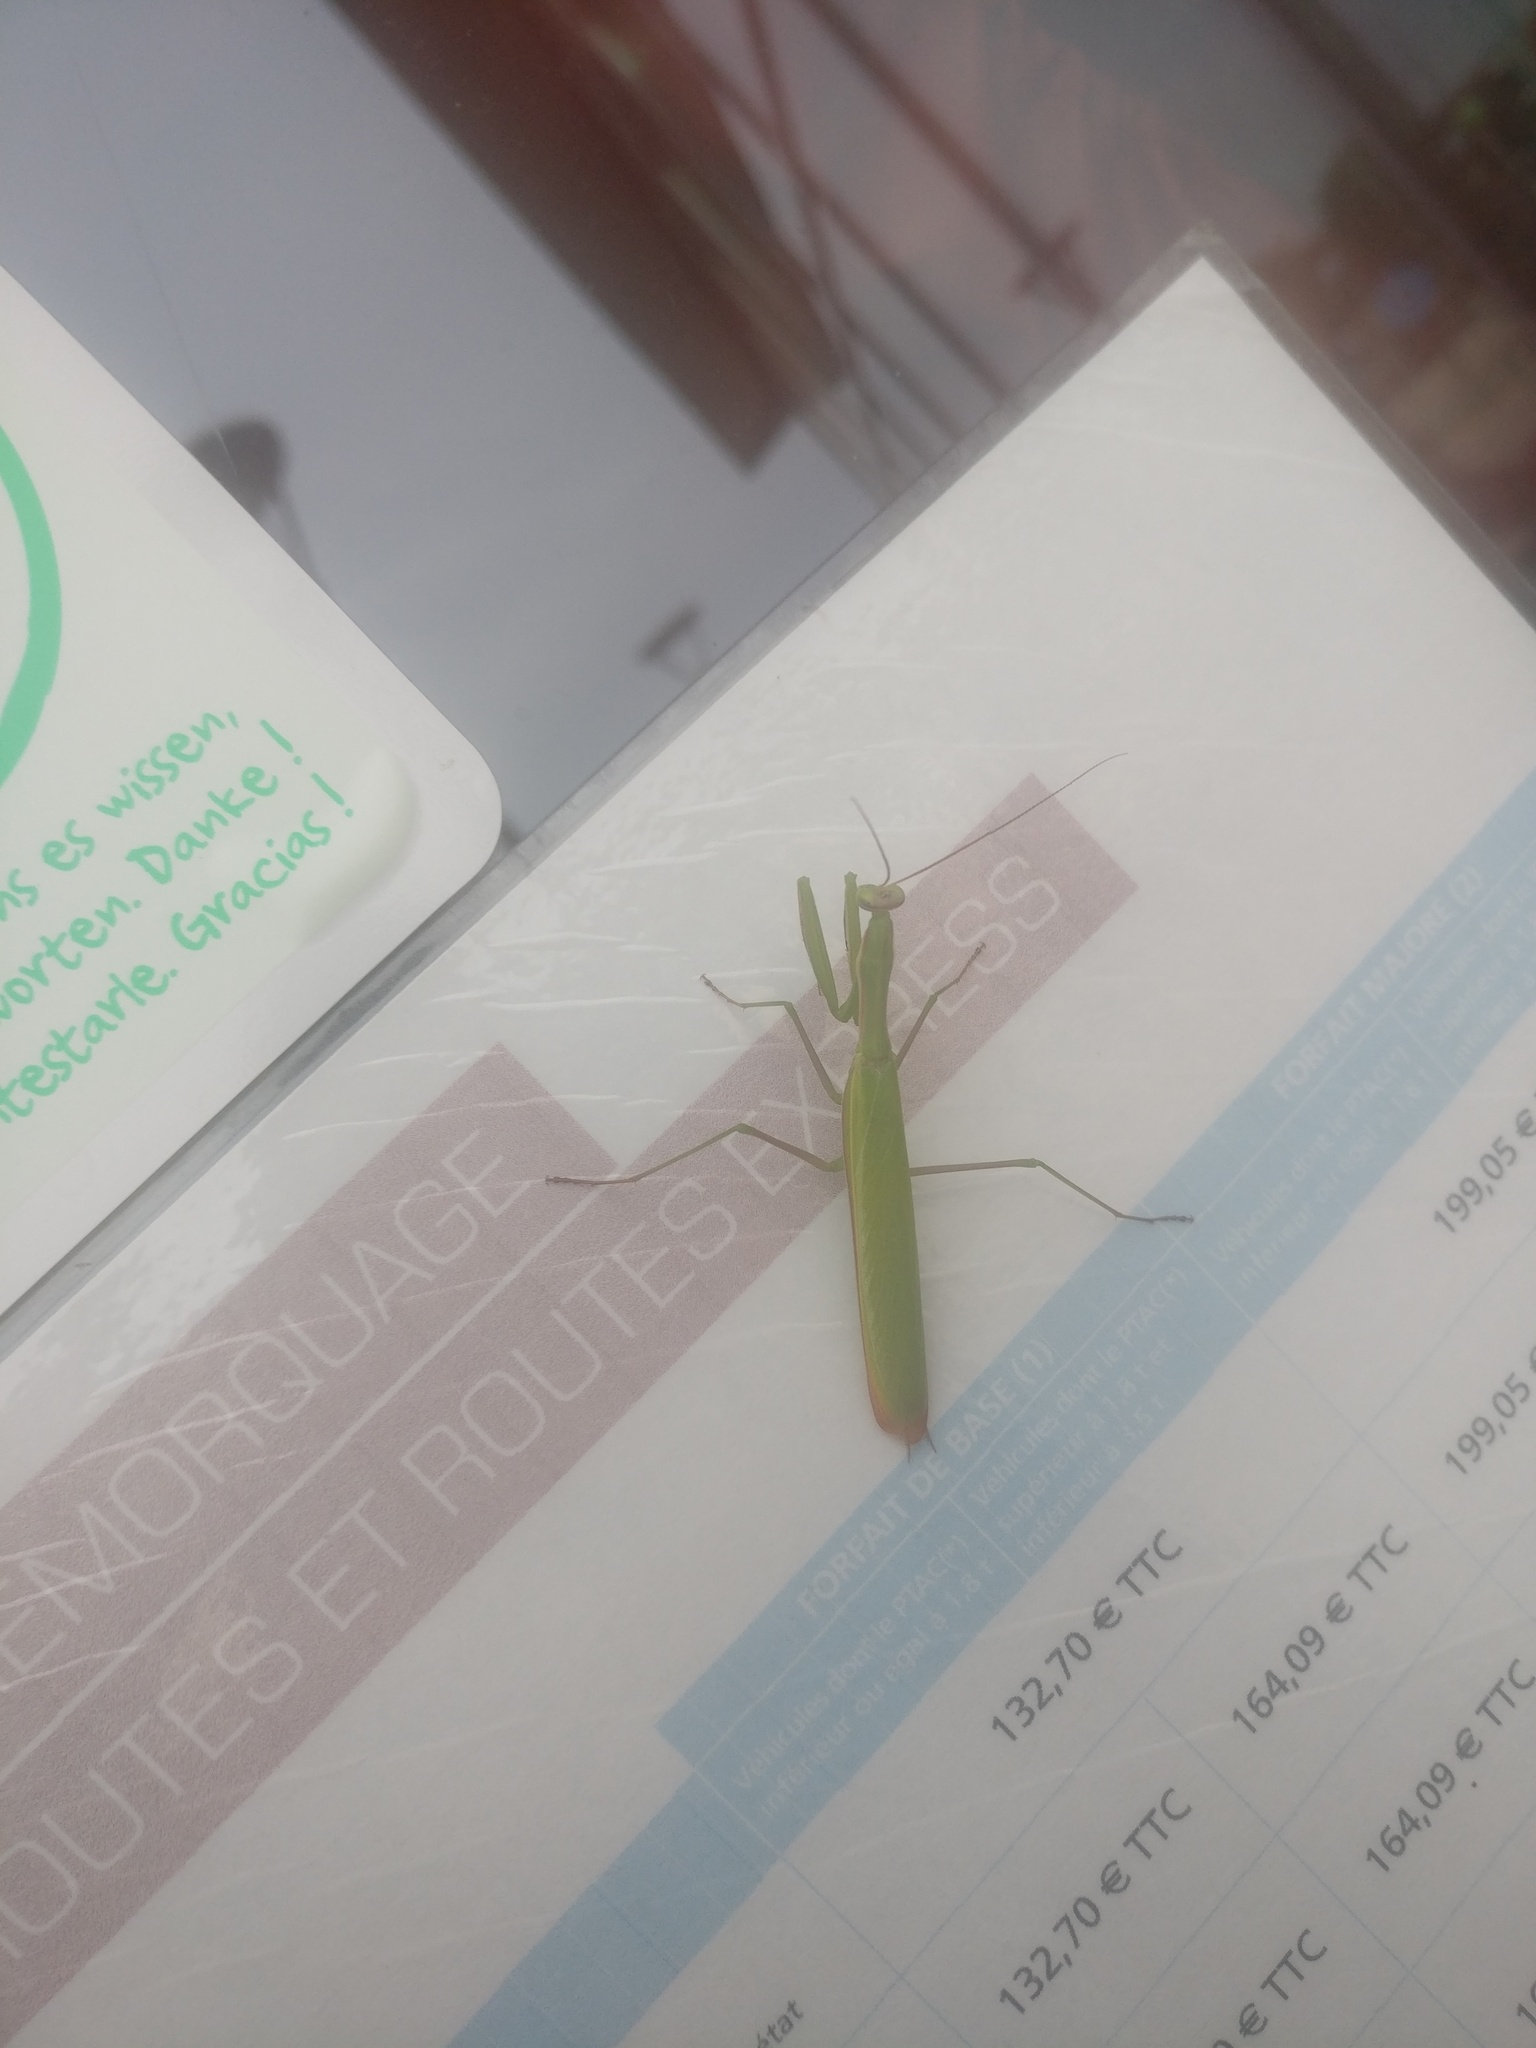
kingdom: Animalia
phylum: Arthropoda
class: Insecta
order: Mantodea
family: Mantidae
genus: Mantis
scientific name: Mantis religiosa
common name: Praying mantis
